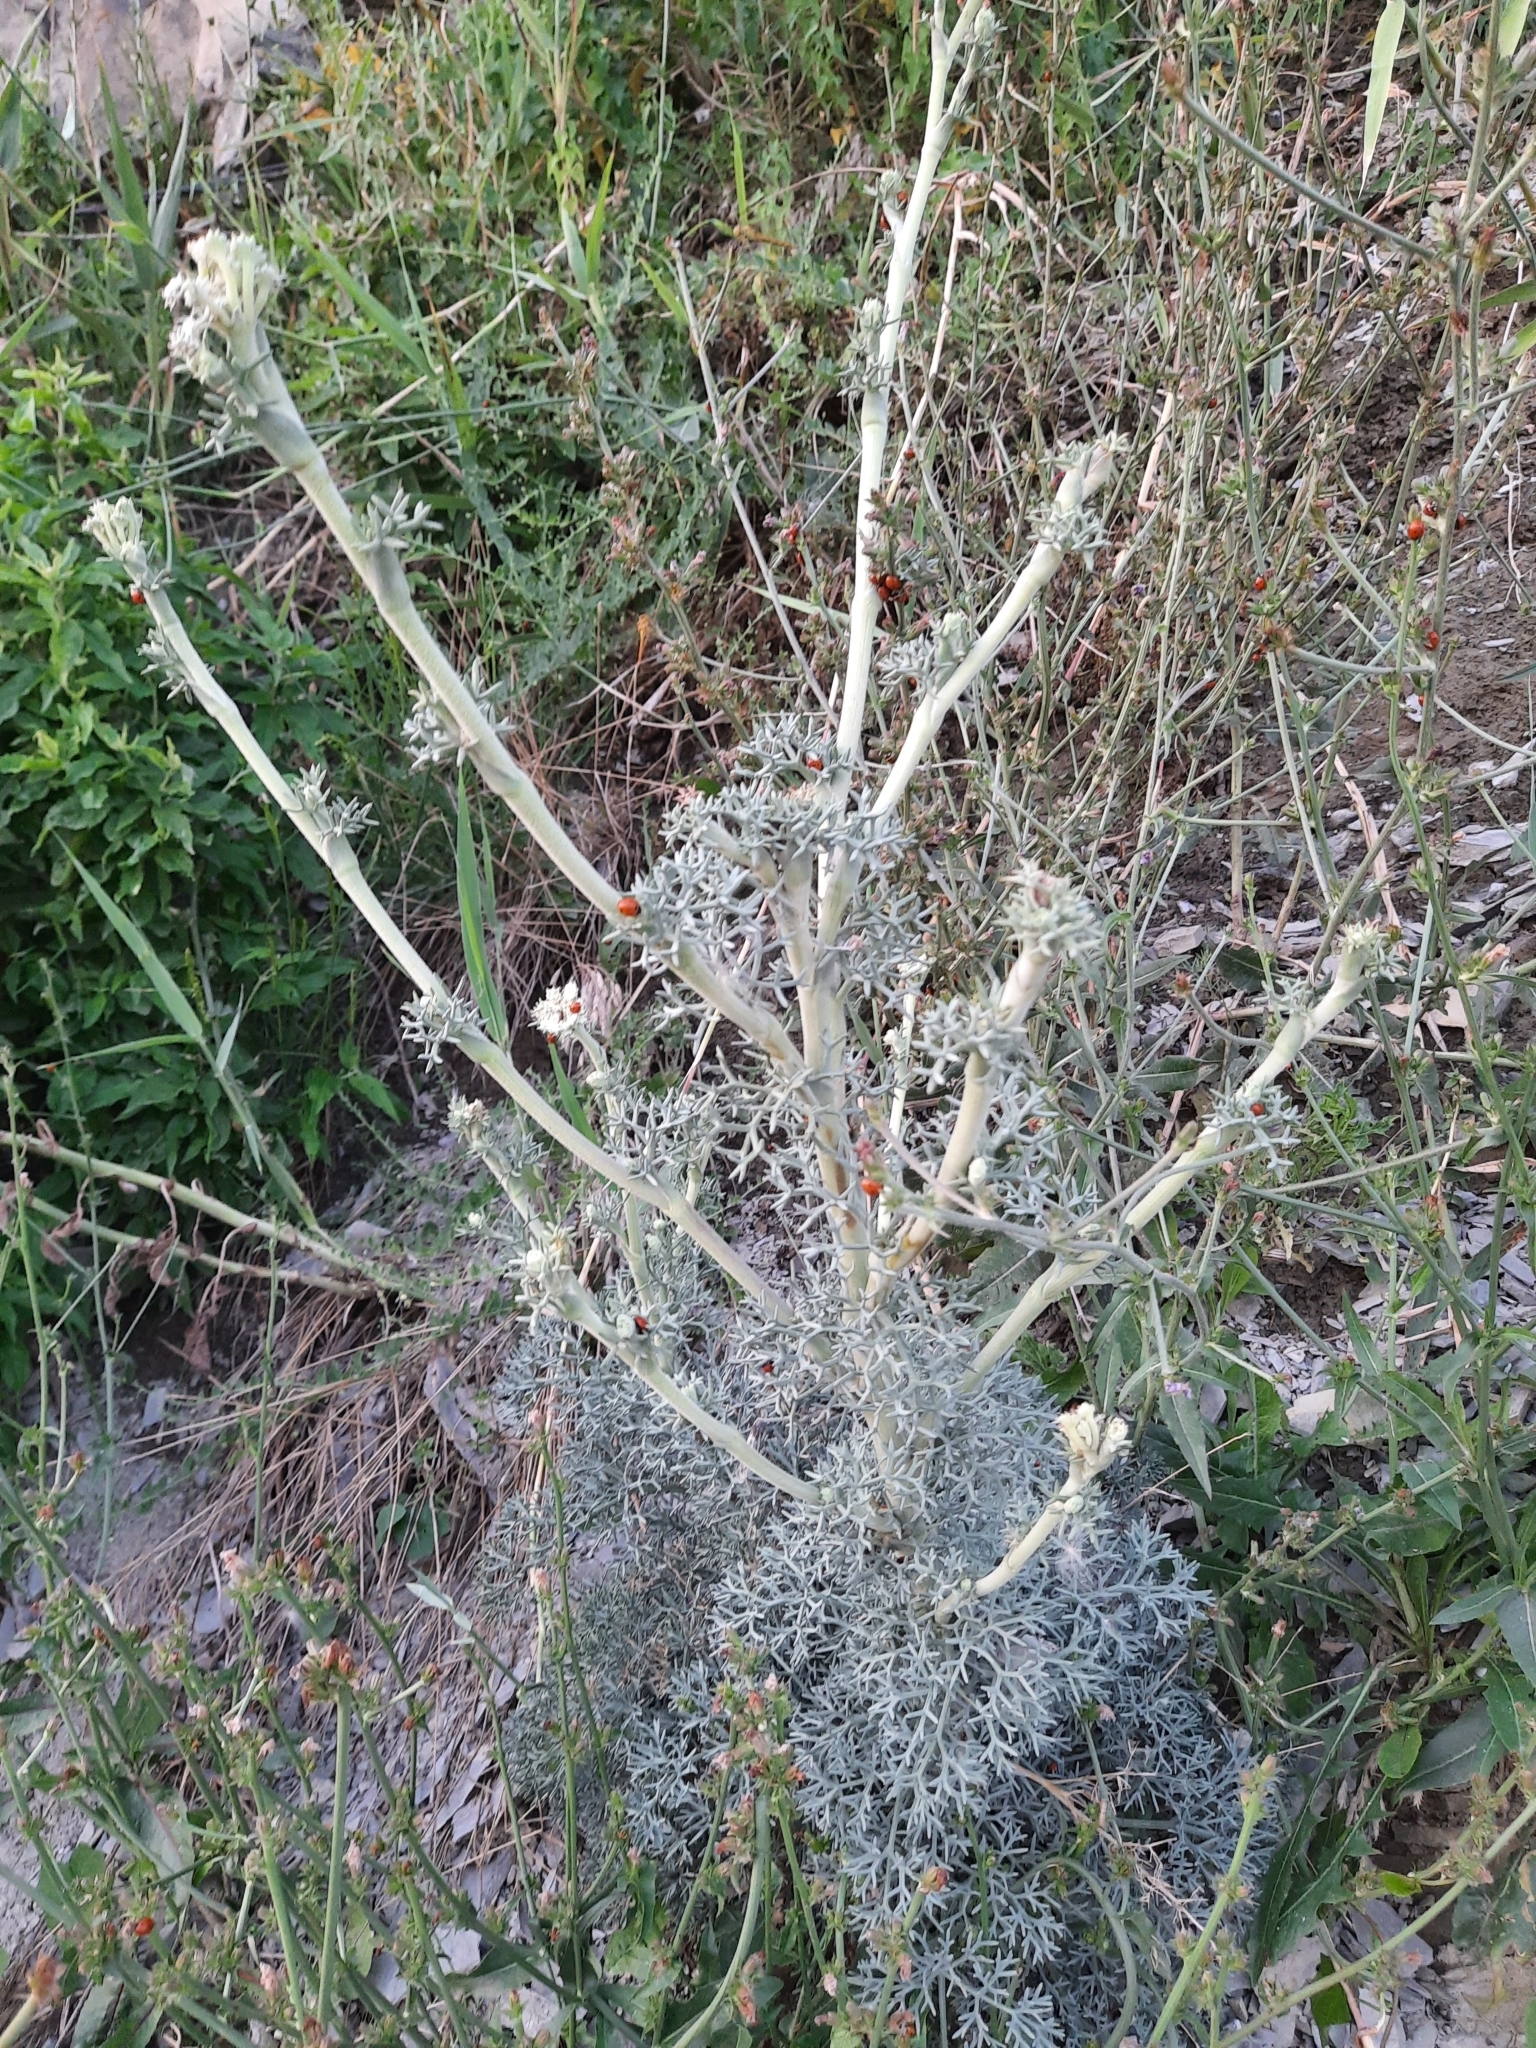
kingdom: Plantae
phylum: Tracheophyta
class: Magnoliopsida
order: Apiales
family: Apiaceae
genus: Seseli
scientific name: Seseli ponticum
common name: Pontic seseli
